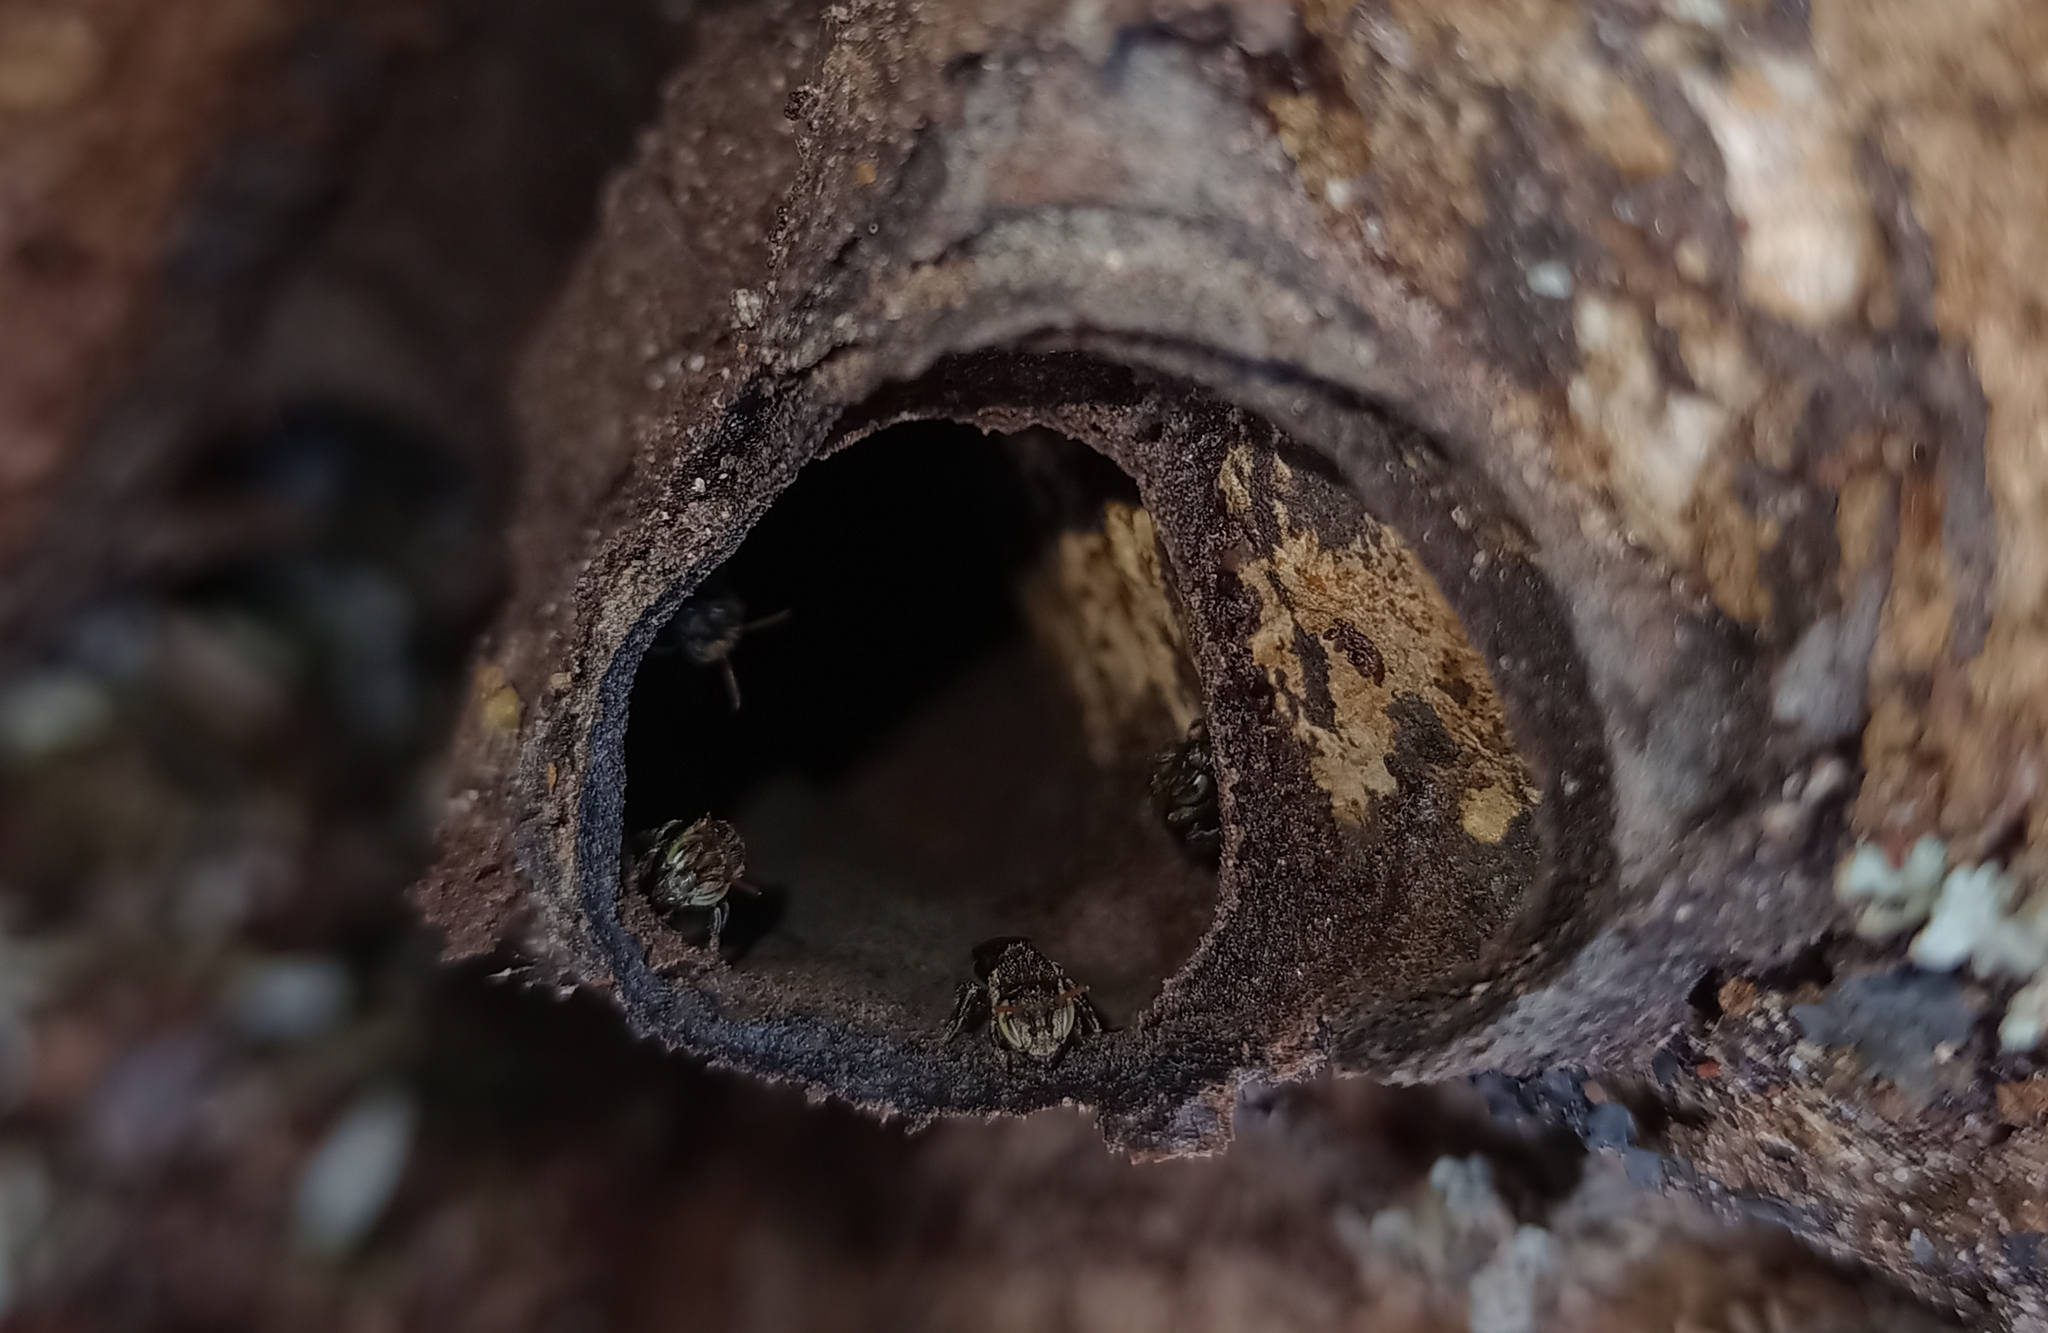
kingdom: Animalia
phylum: Arthropoda
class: Insecta
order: Hymenoptera
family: Apidae
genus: Nannotrigona
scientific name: Nannotrigona testaceicornis
